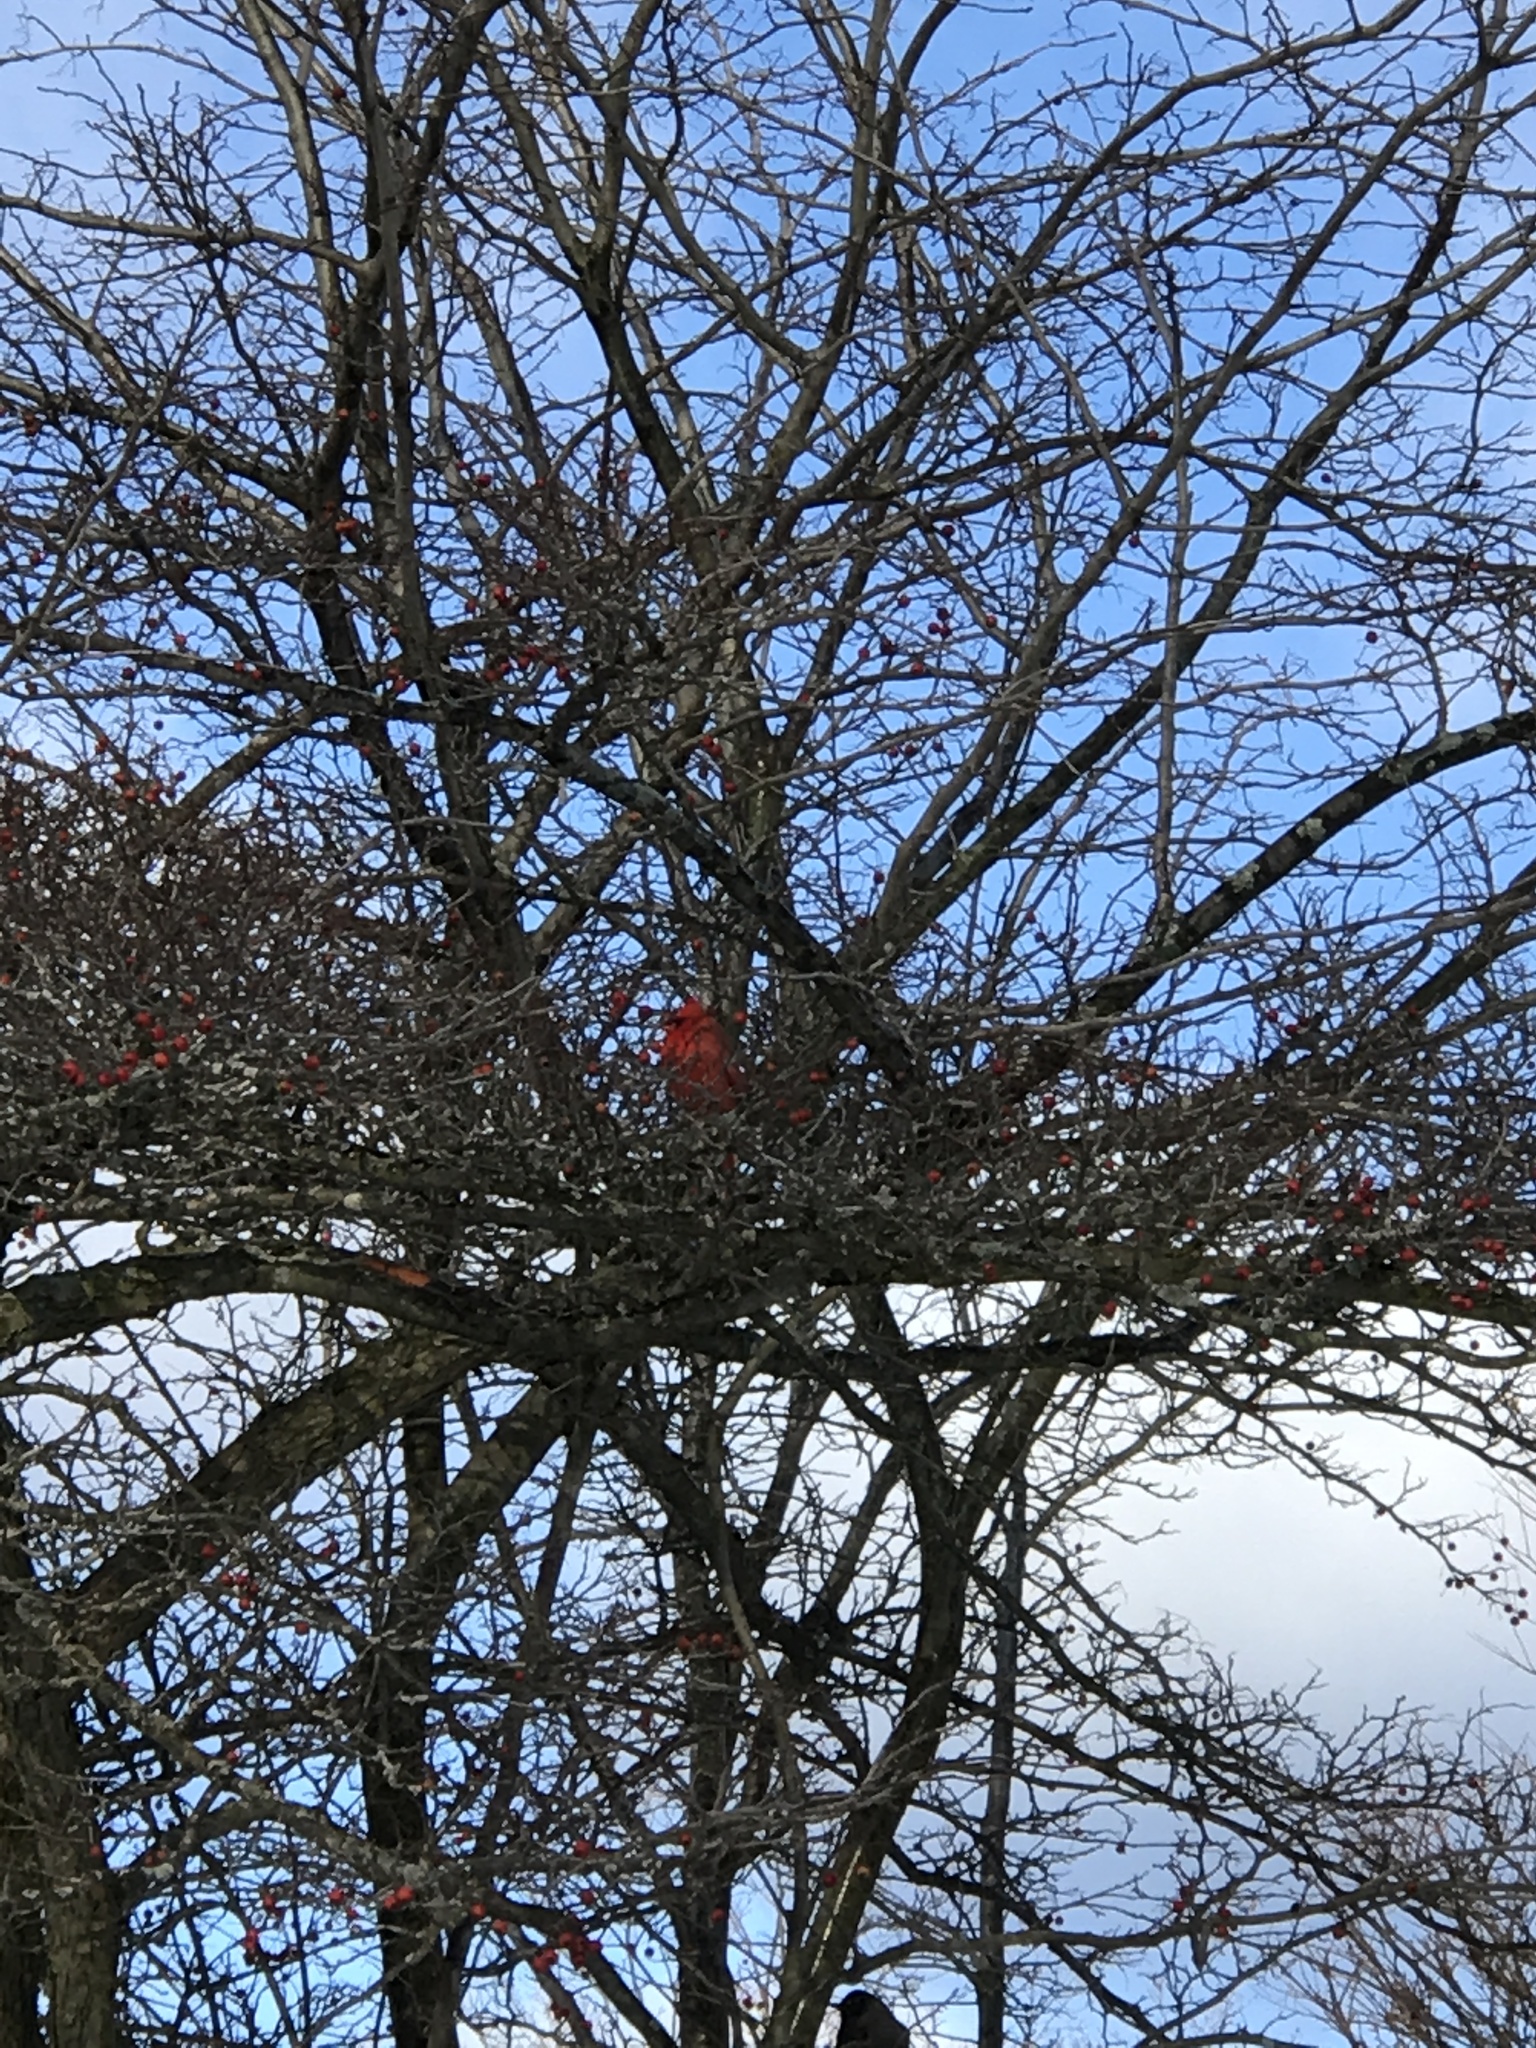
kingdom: Animalia
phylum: Chordata
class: Aves
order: Passeriformes
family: Cardinalidae
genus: Cardinalis
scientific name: Cardinalis cardinalis
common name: Northern cardinal
